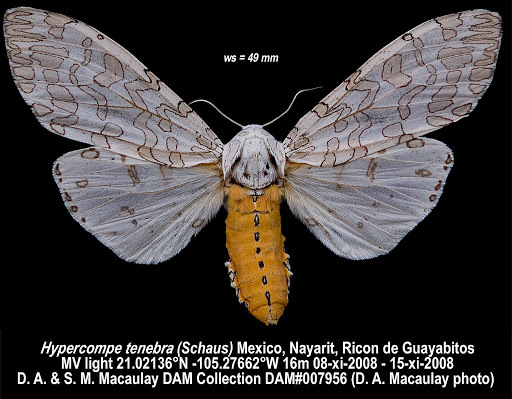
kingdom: Animalia
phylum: Arthropoda
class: Insecta
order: Lepidoptera
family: Erebidae
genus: Hypercompe
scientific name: Hypercompe suffusa
